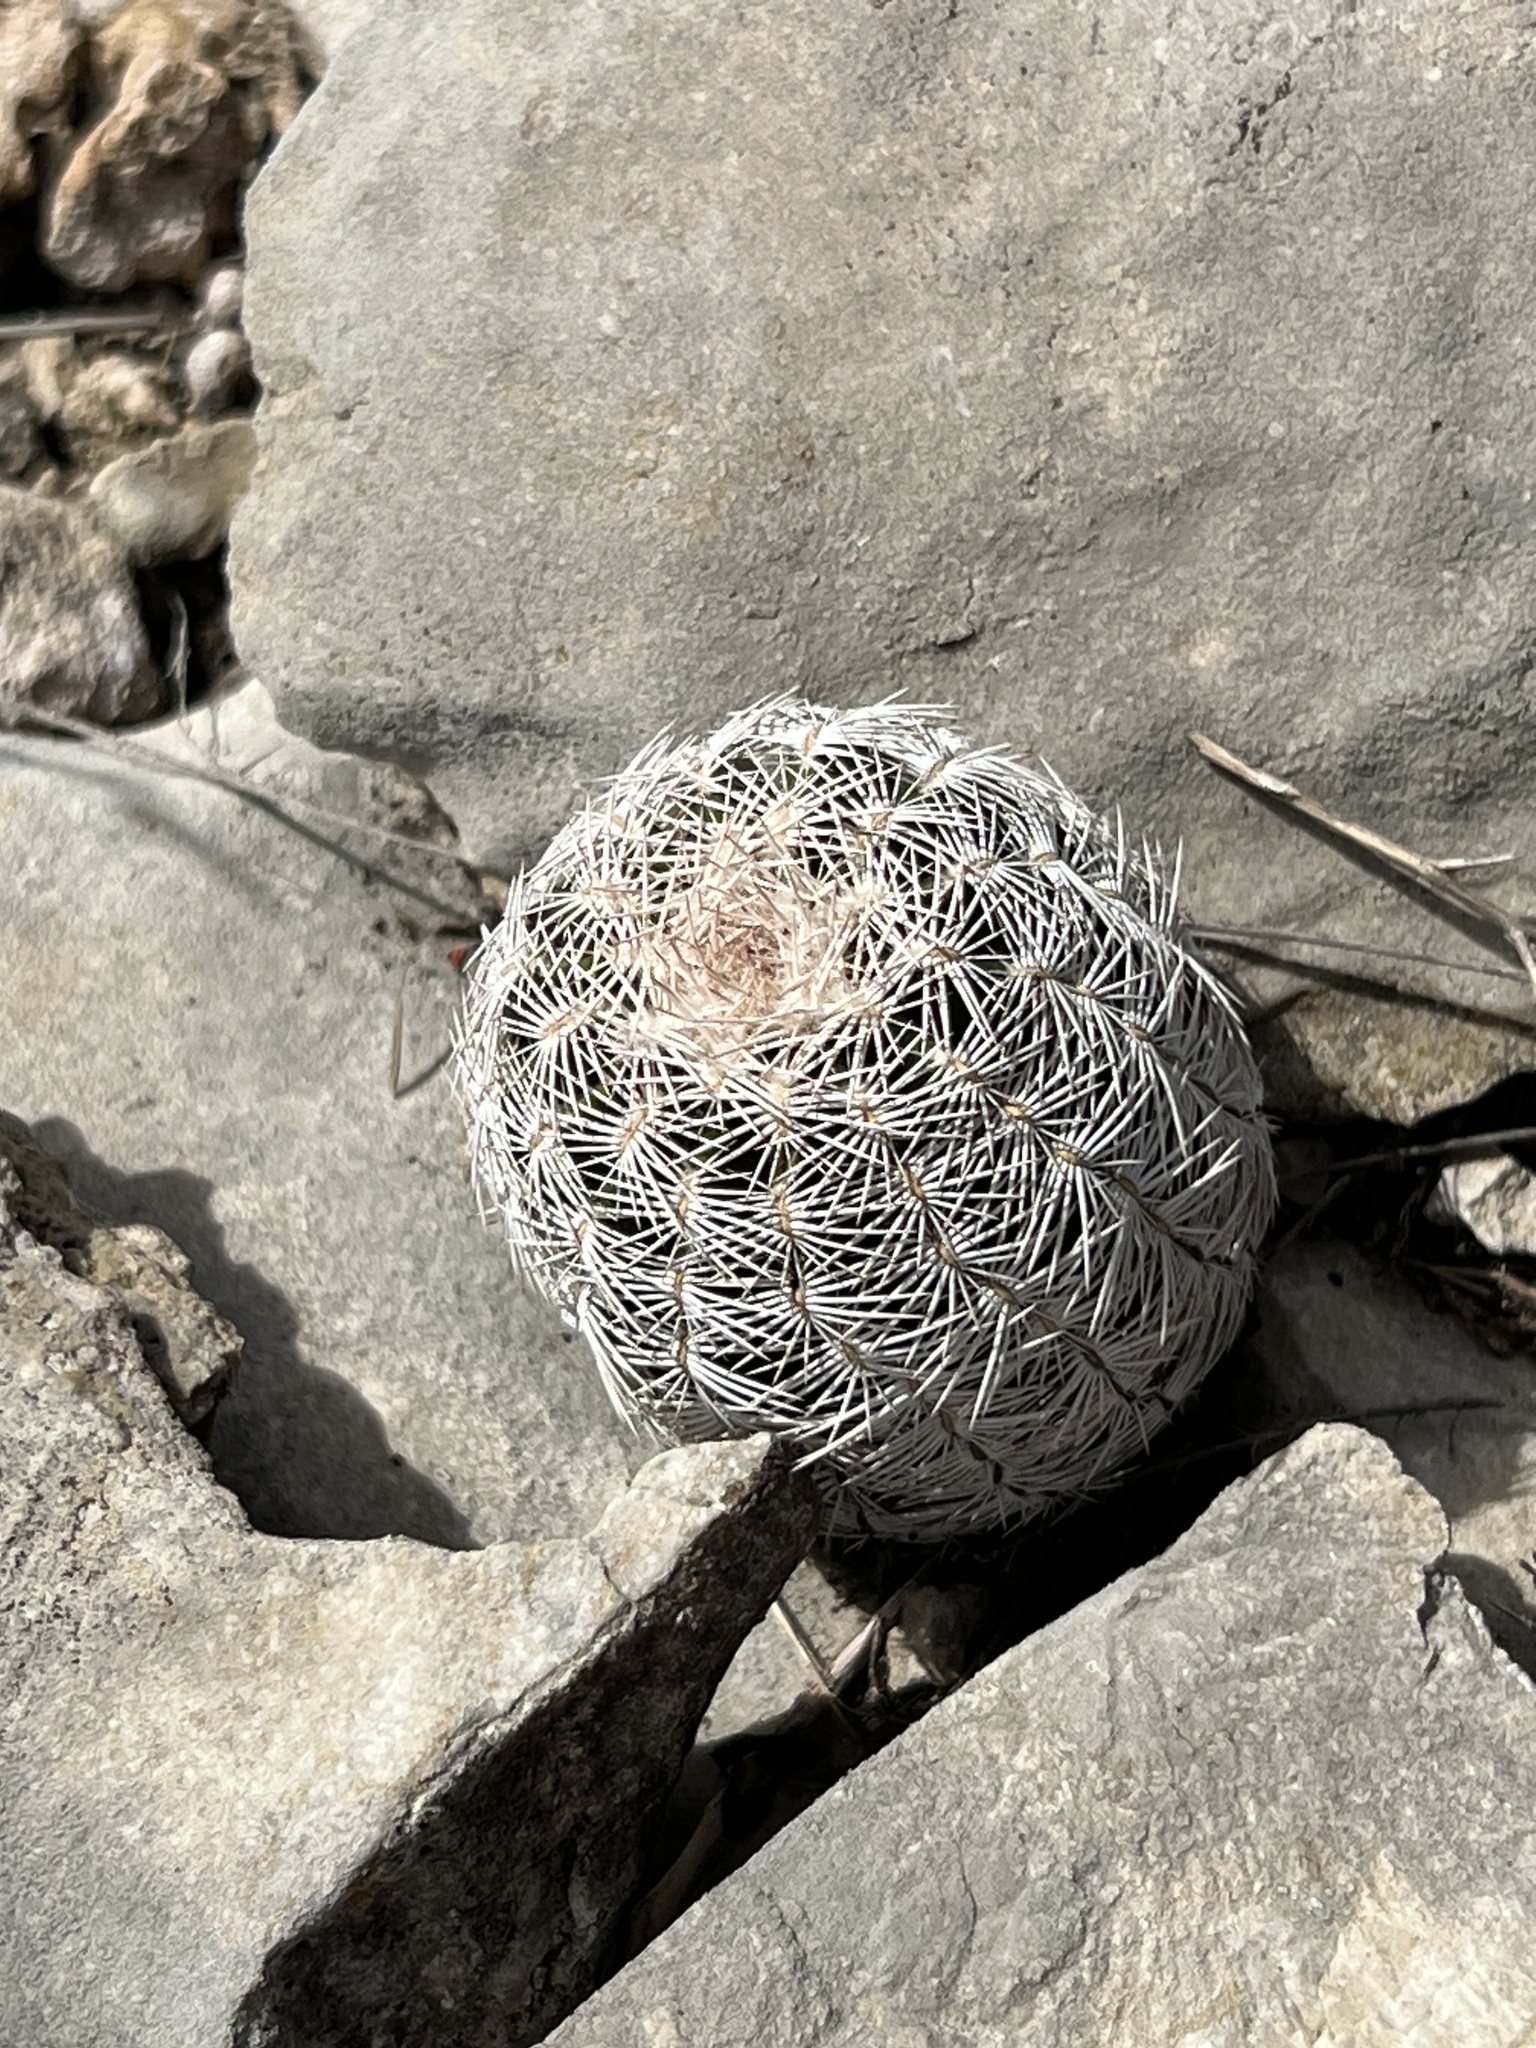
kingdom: Plantae
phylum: Tracheophyta
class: Magnoliopsida
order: Caryophyllales
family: Cactaceae
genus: Echinocereus
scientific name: Echinocereus reichenbachii
